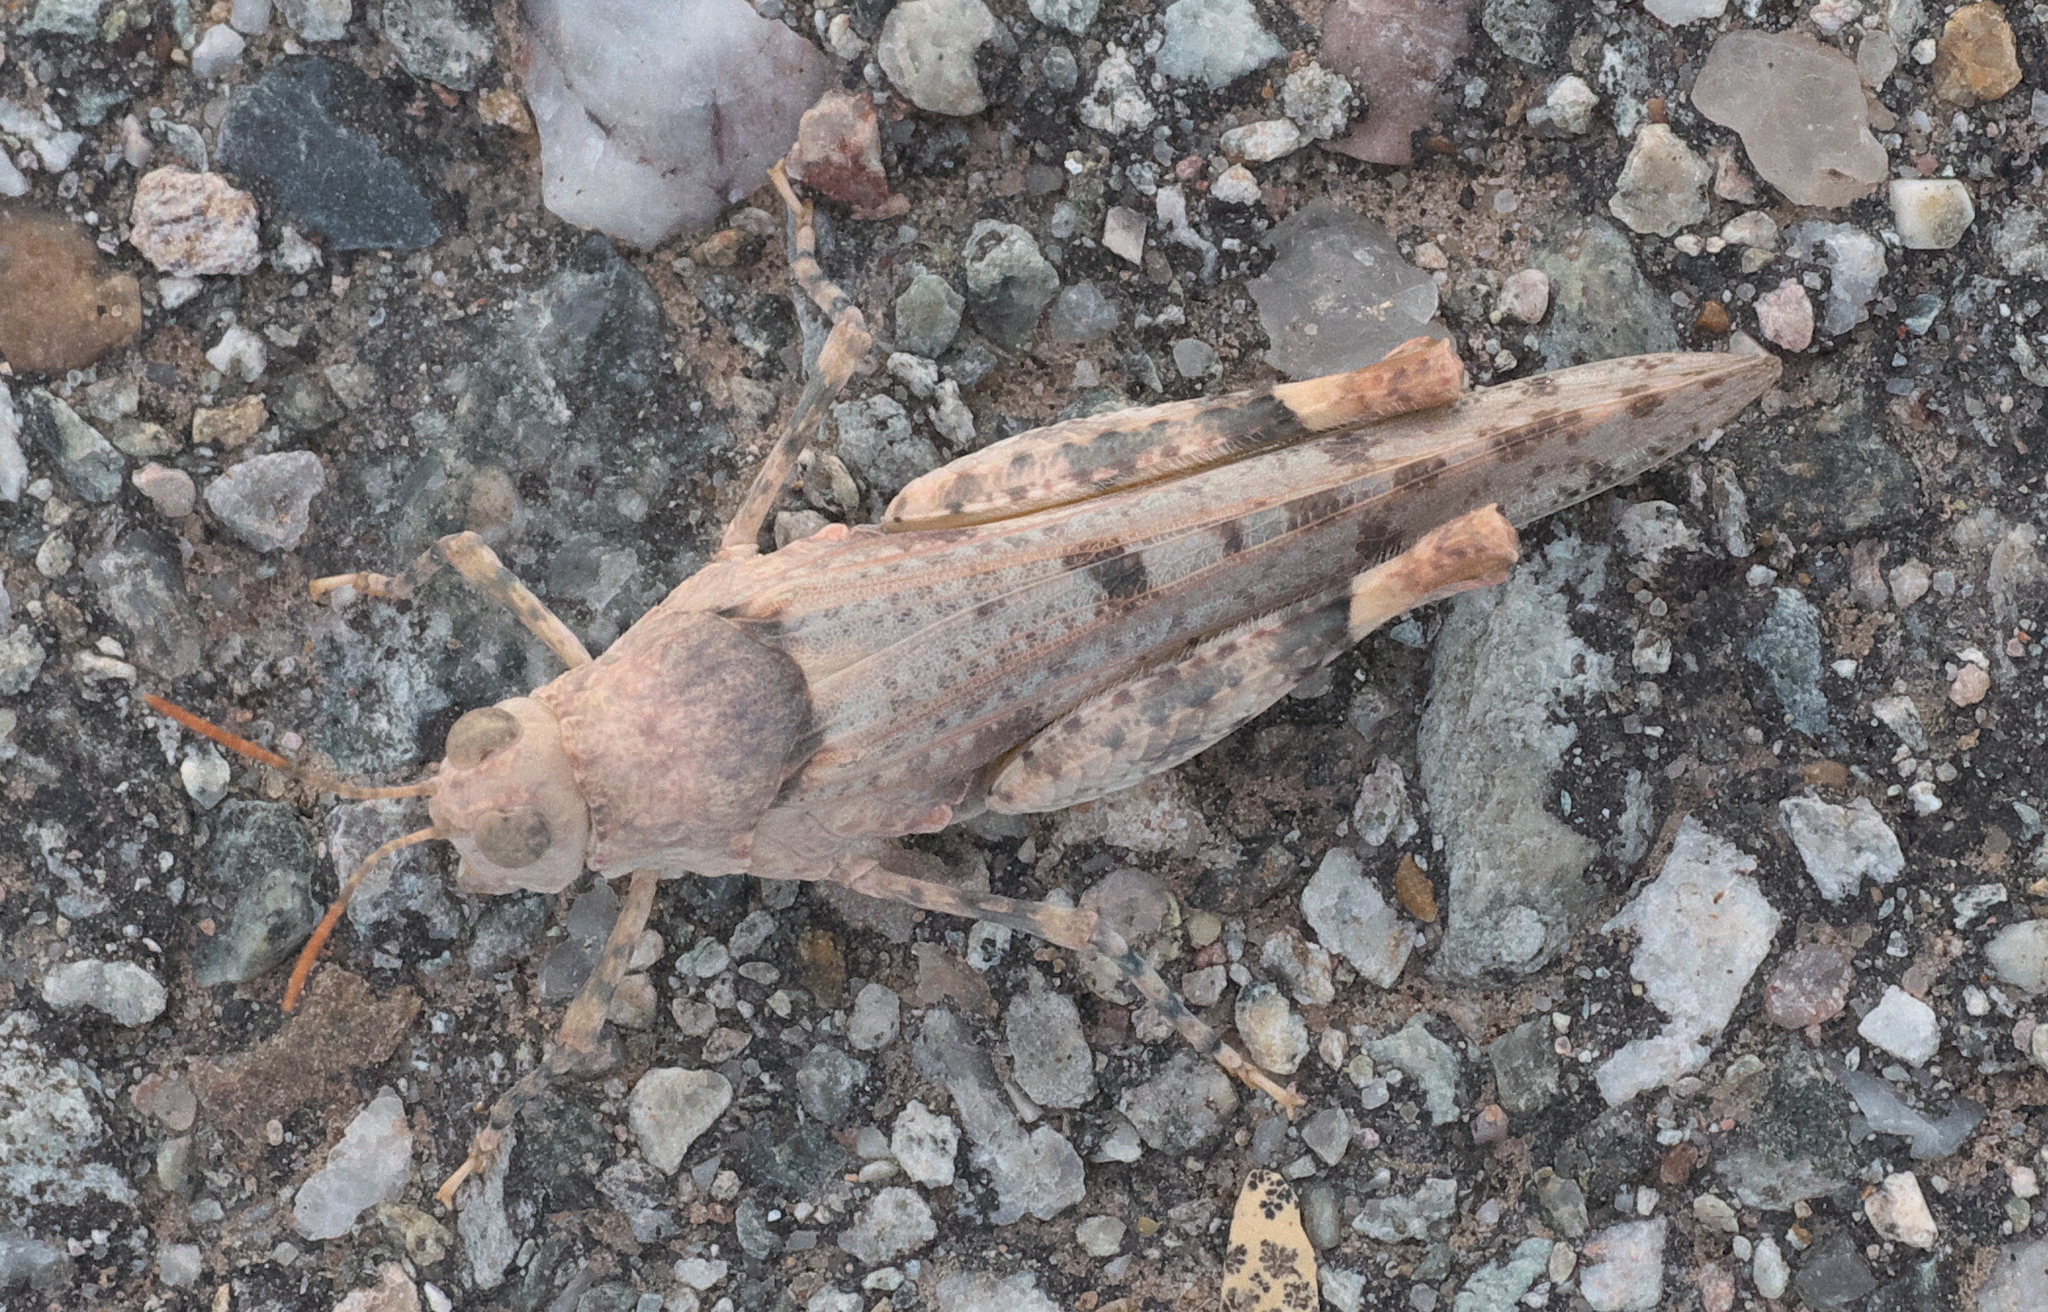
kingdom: Animalia
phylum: Arthropoda
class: Insecta
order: Orthoptera
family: Acrididae
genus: Cibolacris
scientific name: Cibolacris parviceps
